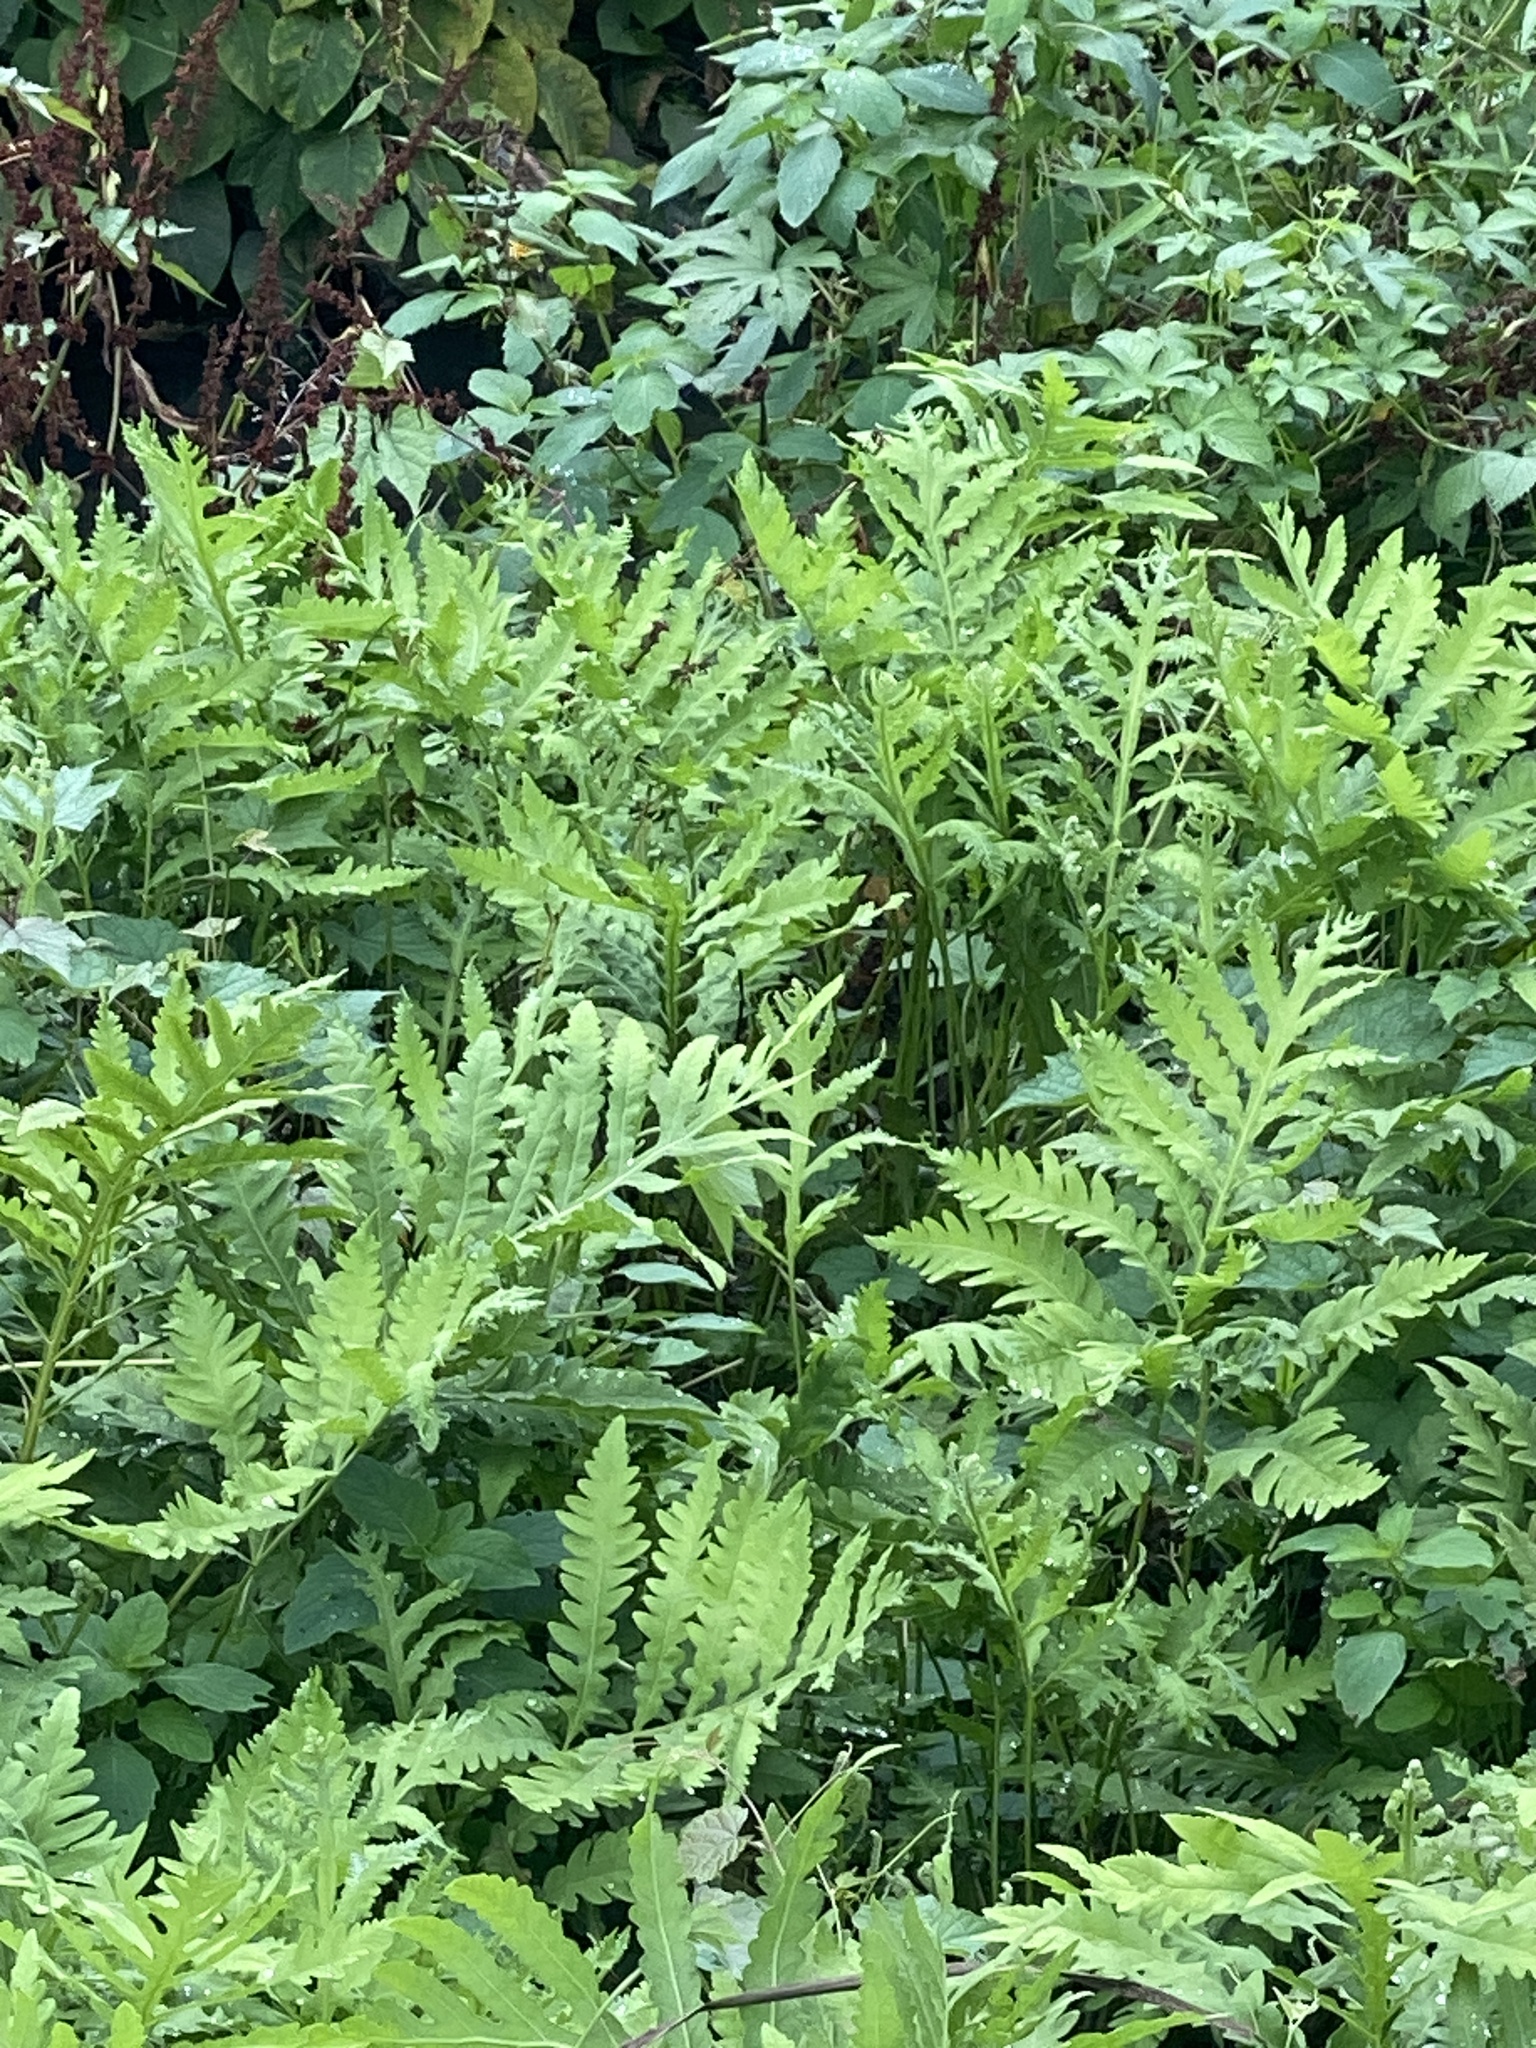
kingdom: Plantae
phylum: Tracheophyta
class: Polypodiopsida
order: Polypodiales
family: Onocleaceae
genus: Onoclea
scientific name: Onoclea sensibilis
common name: Sensitive fern
